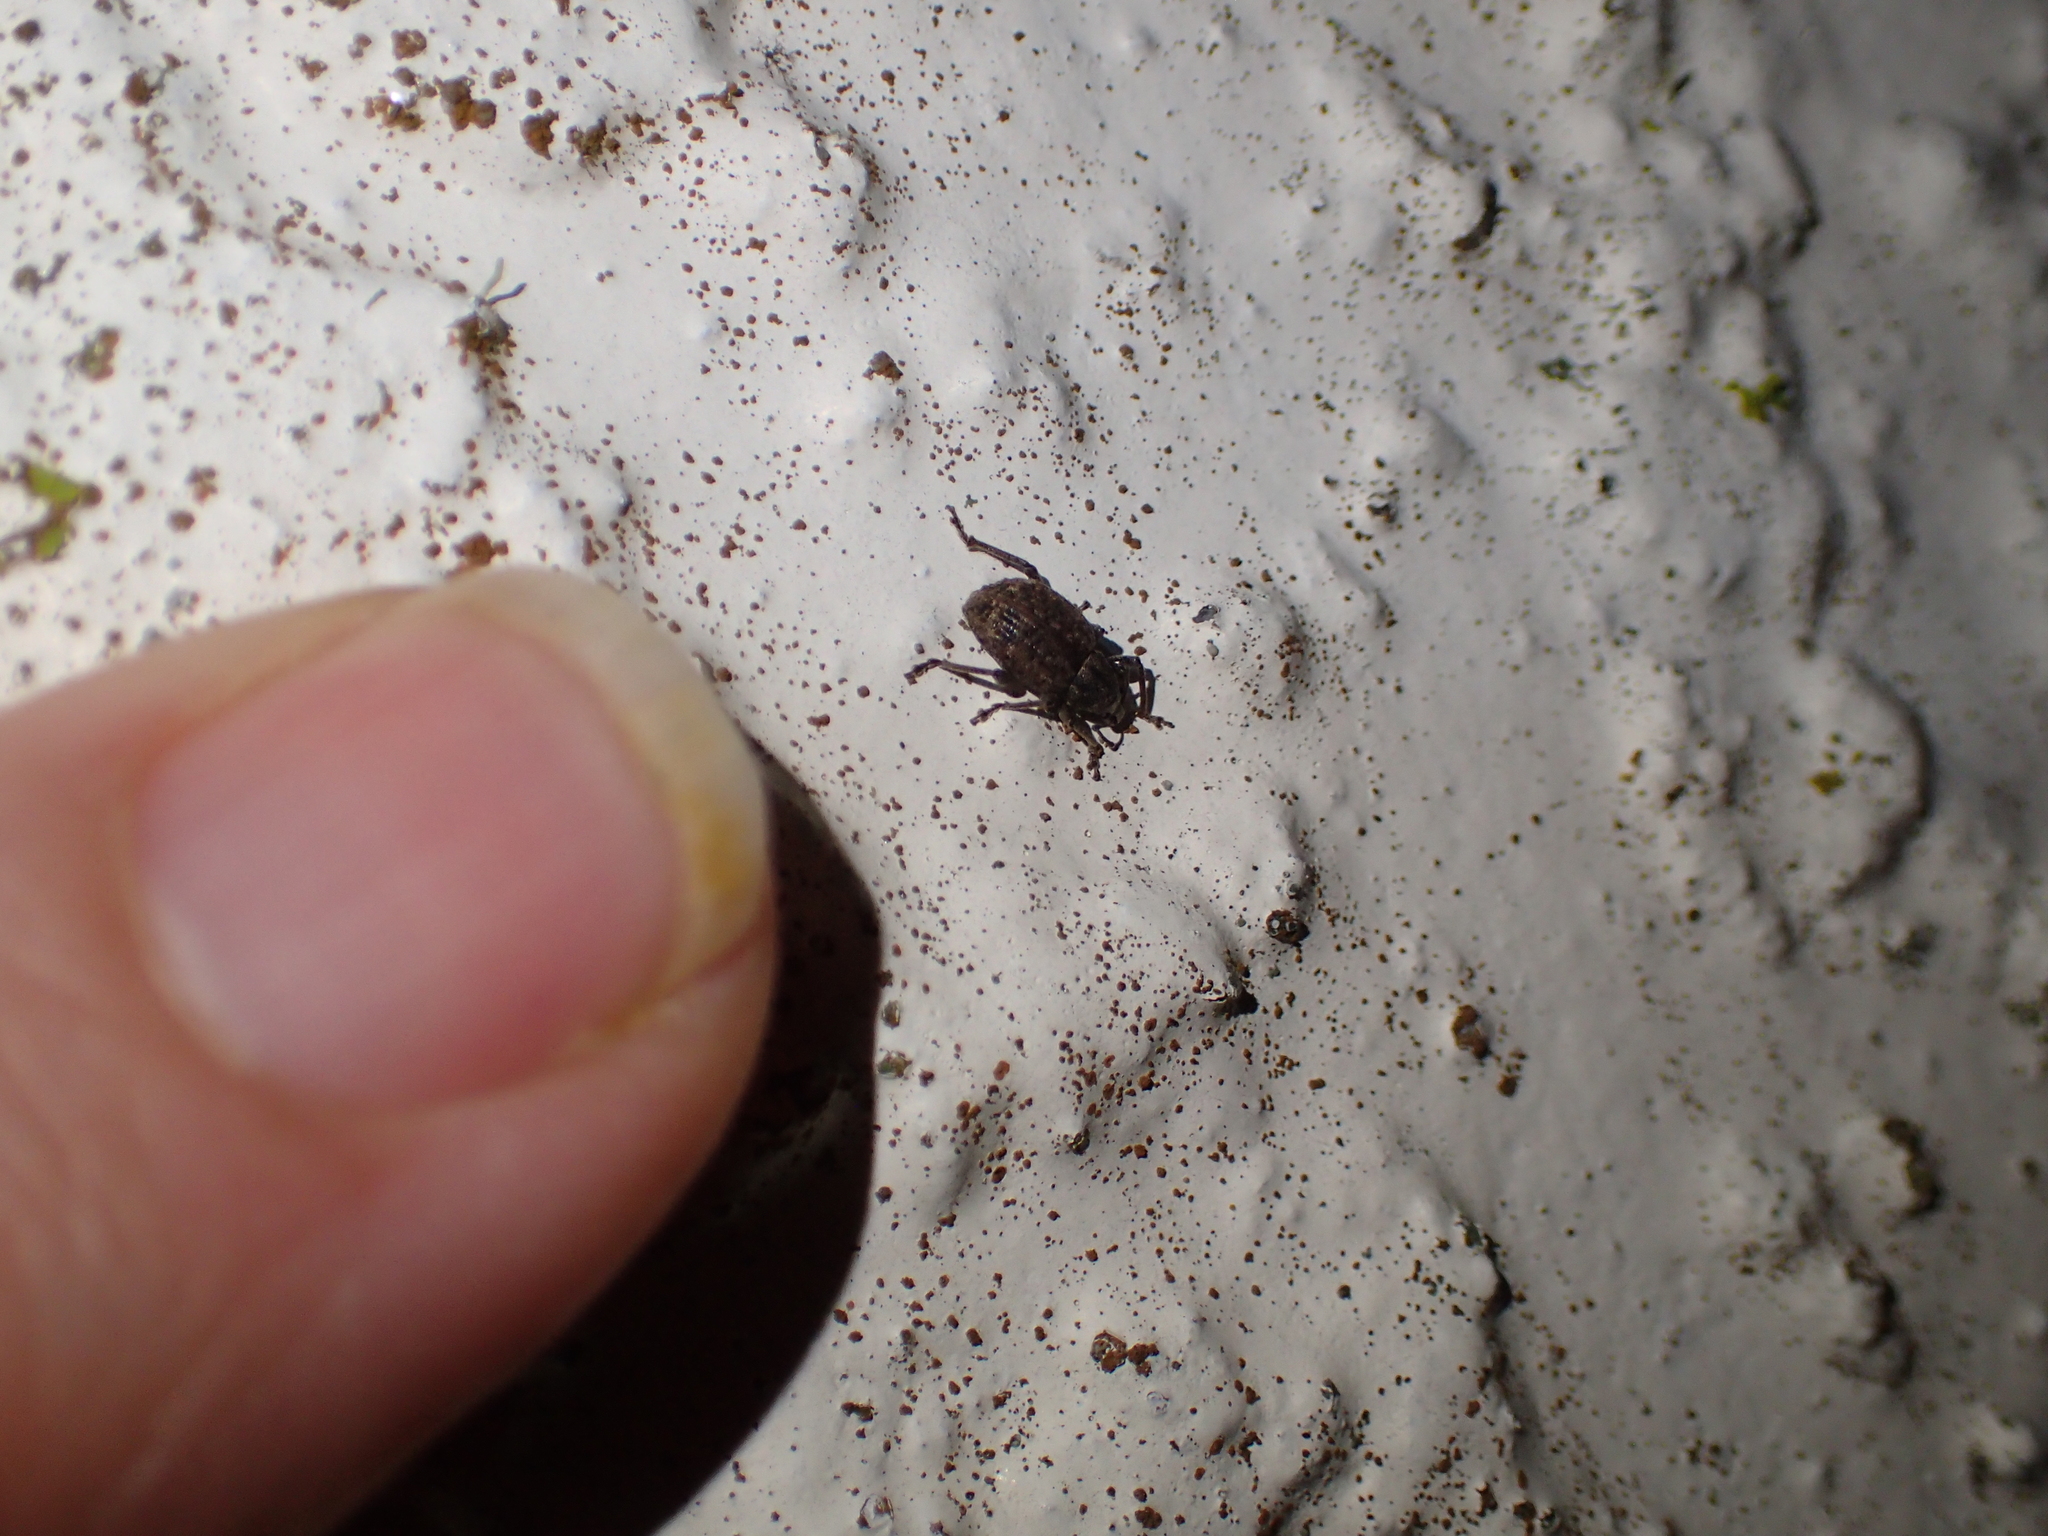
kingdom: Animalia
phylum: Arthropoda
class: Insecta
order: Coleoptera
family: Curculionidae
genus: Phlyctinus
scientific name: Phlyctinus callosus
